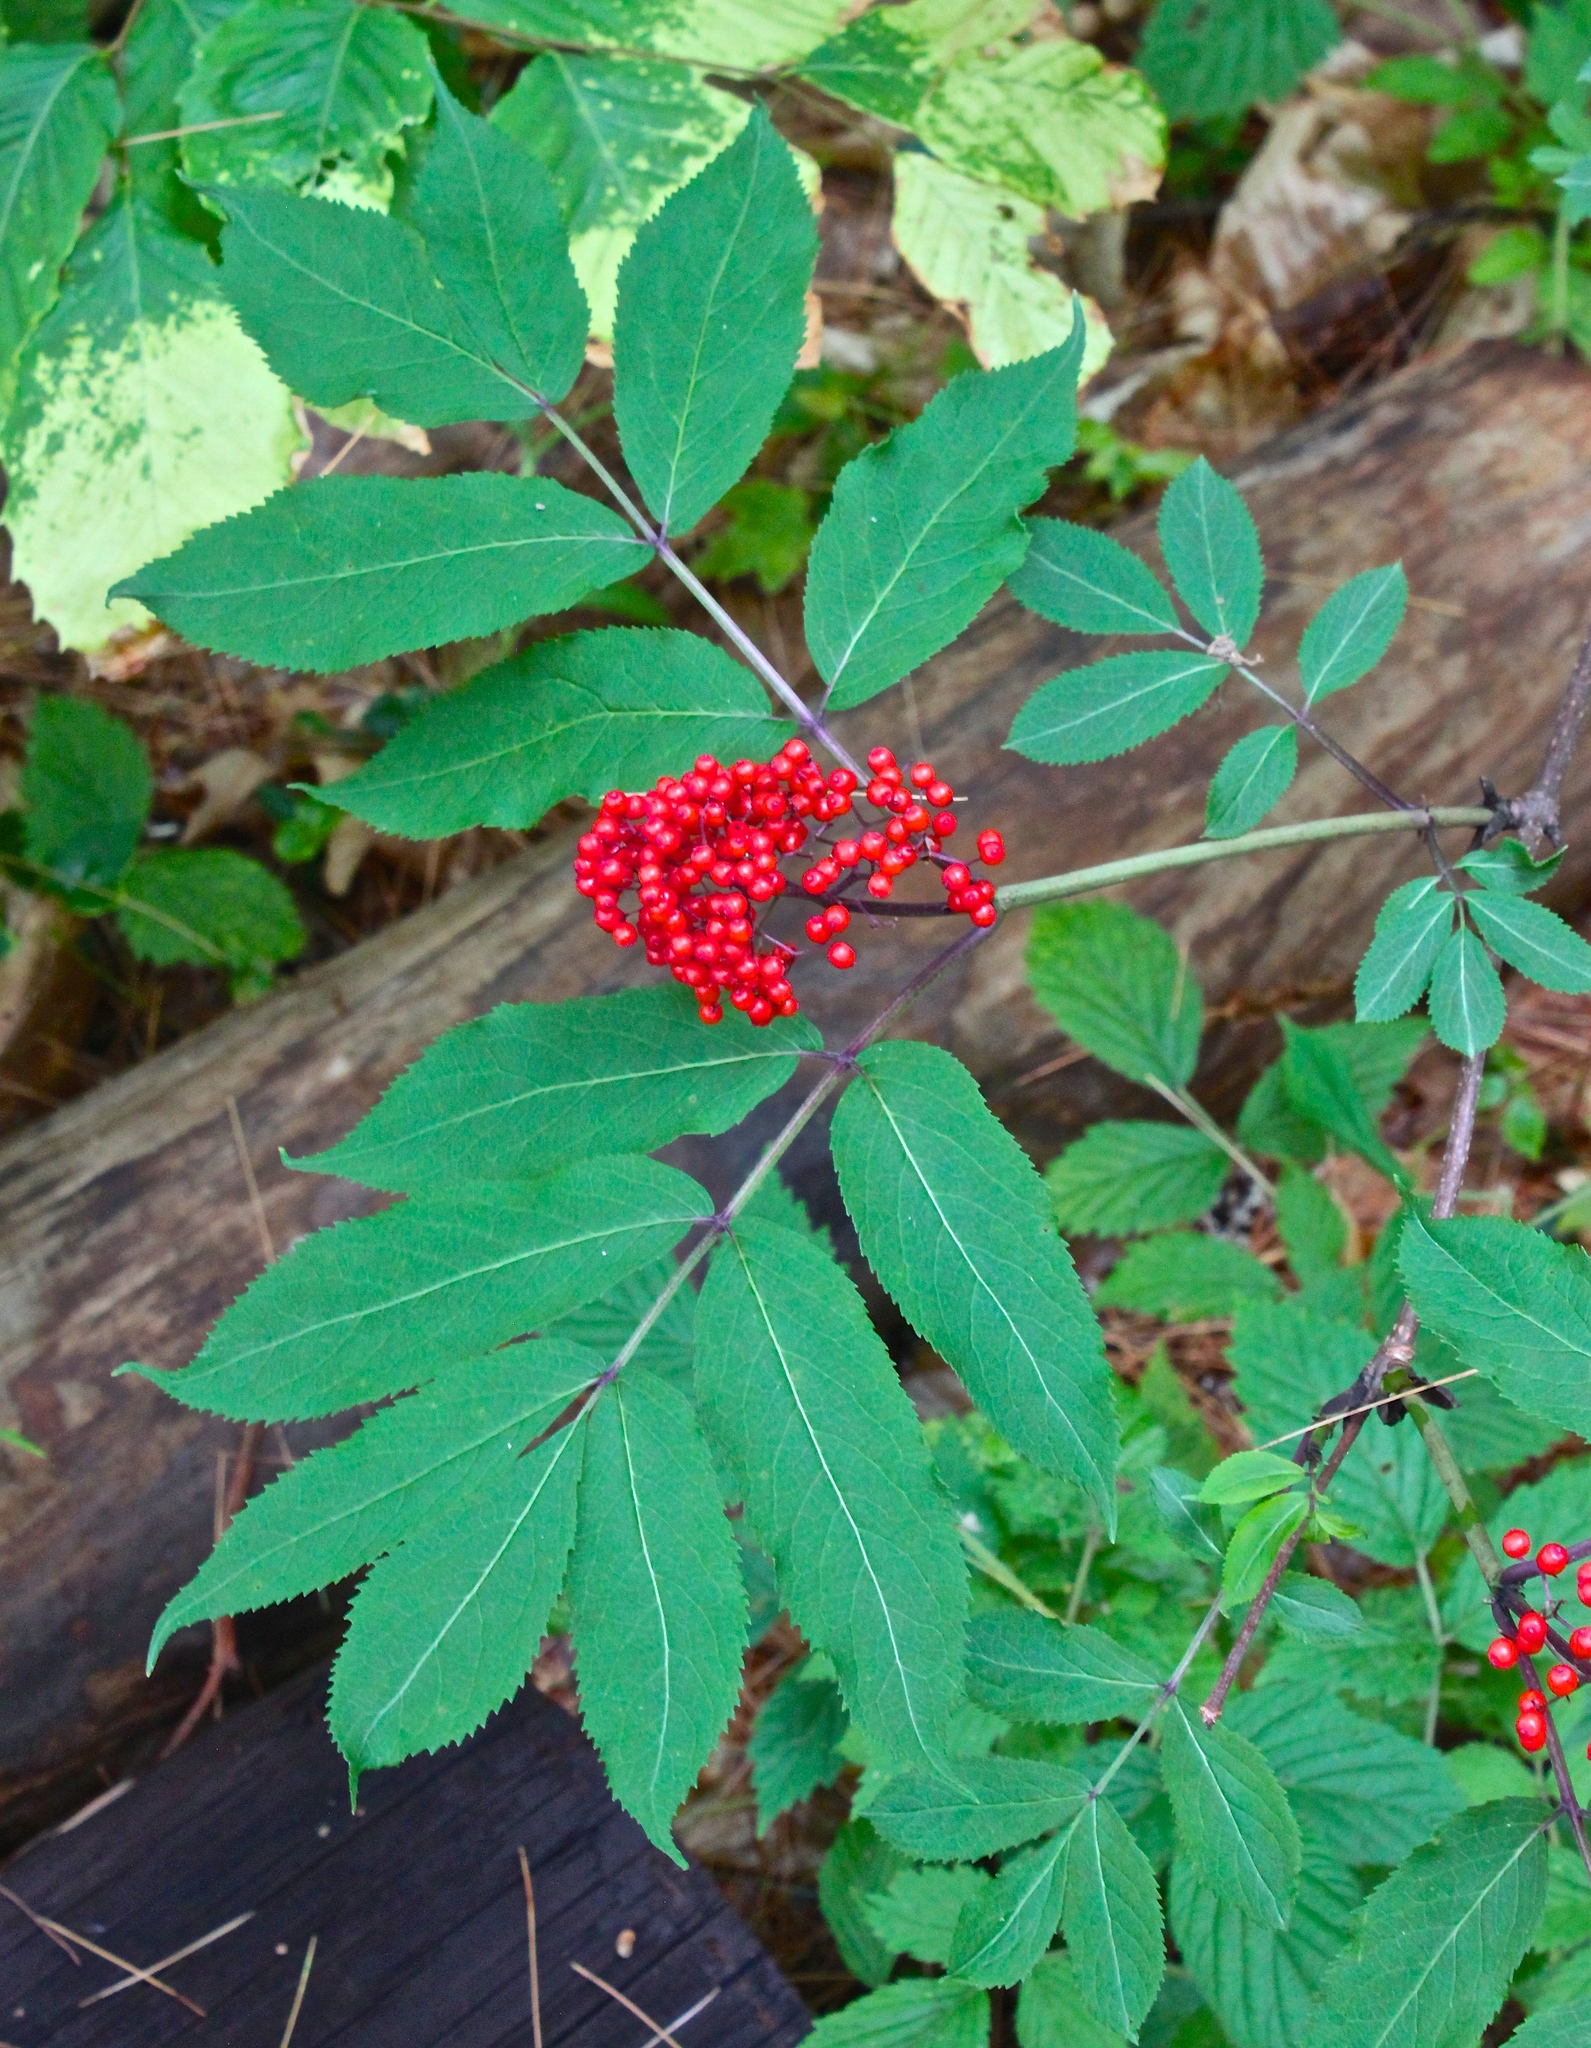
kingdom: Plantae
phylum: Tracheophyta
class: Magnoliopsida
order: Dipsacales
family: Viburnaceae
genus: Sambucus
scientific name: Sambucus racemosa
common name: Red-berried elder
